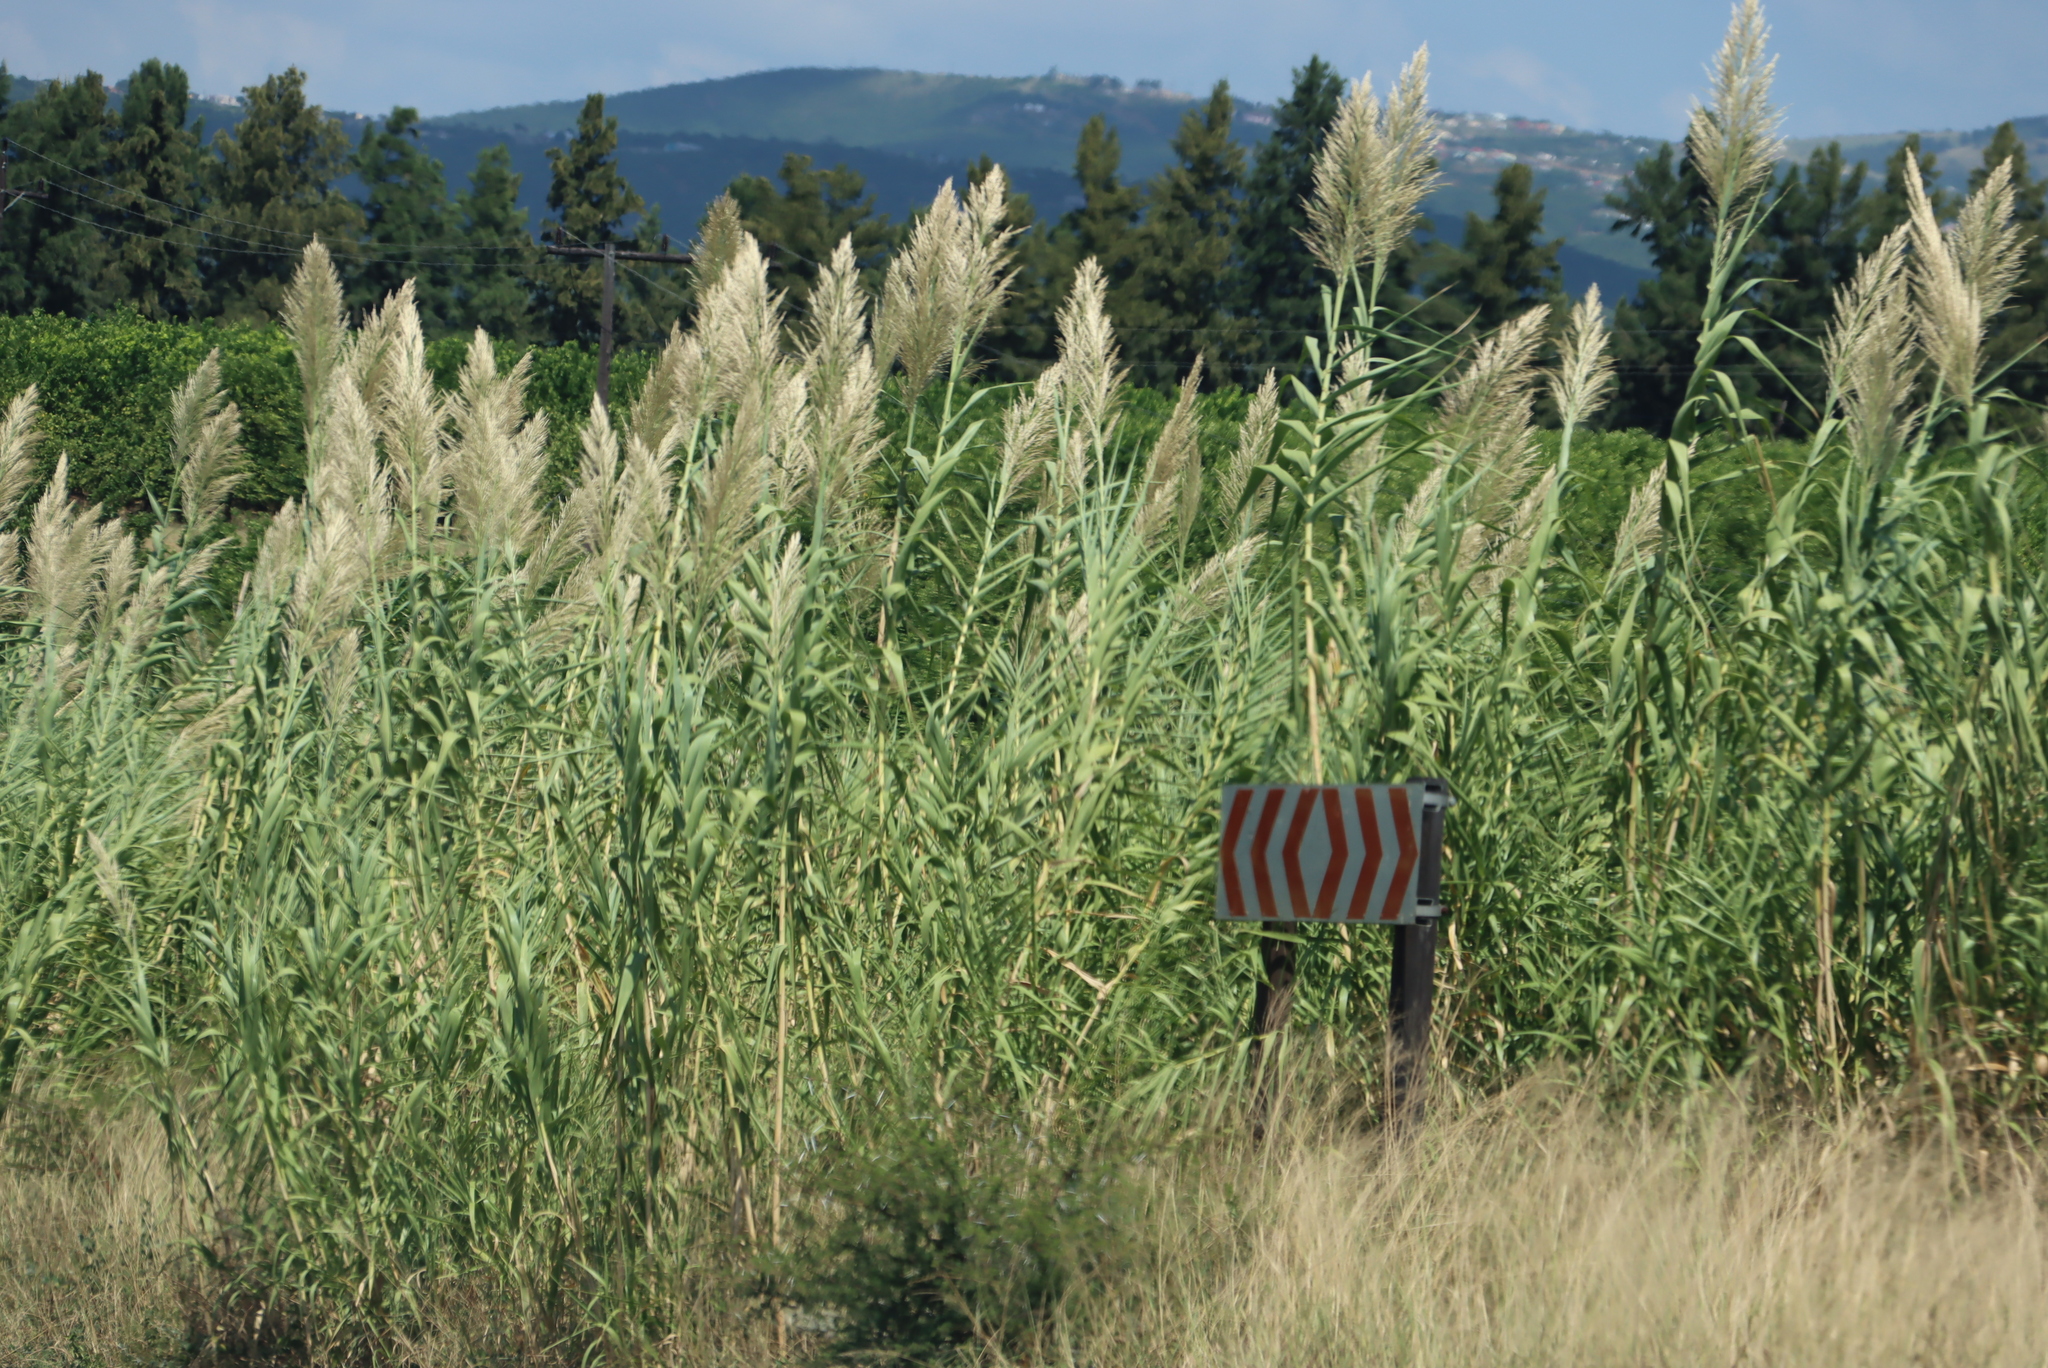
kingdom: Plantae
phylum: Tracheophyta
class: Liliopsida
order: Poales
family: Poaceae
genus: Arundo
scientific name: Arundo donax
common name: Giant reed
